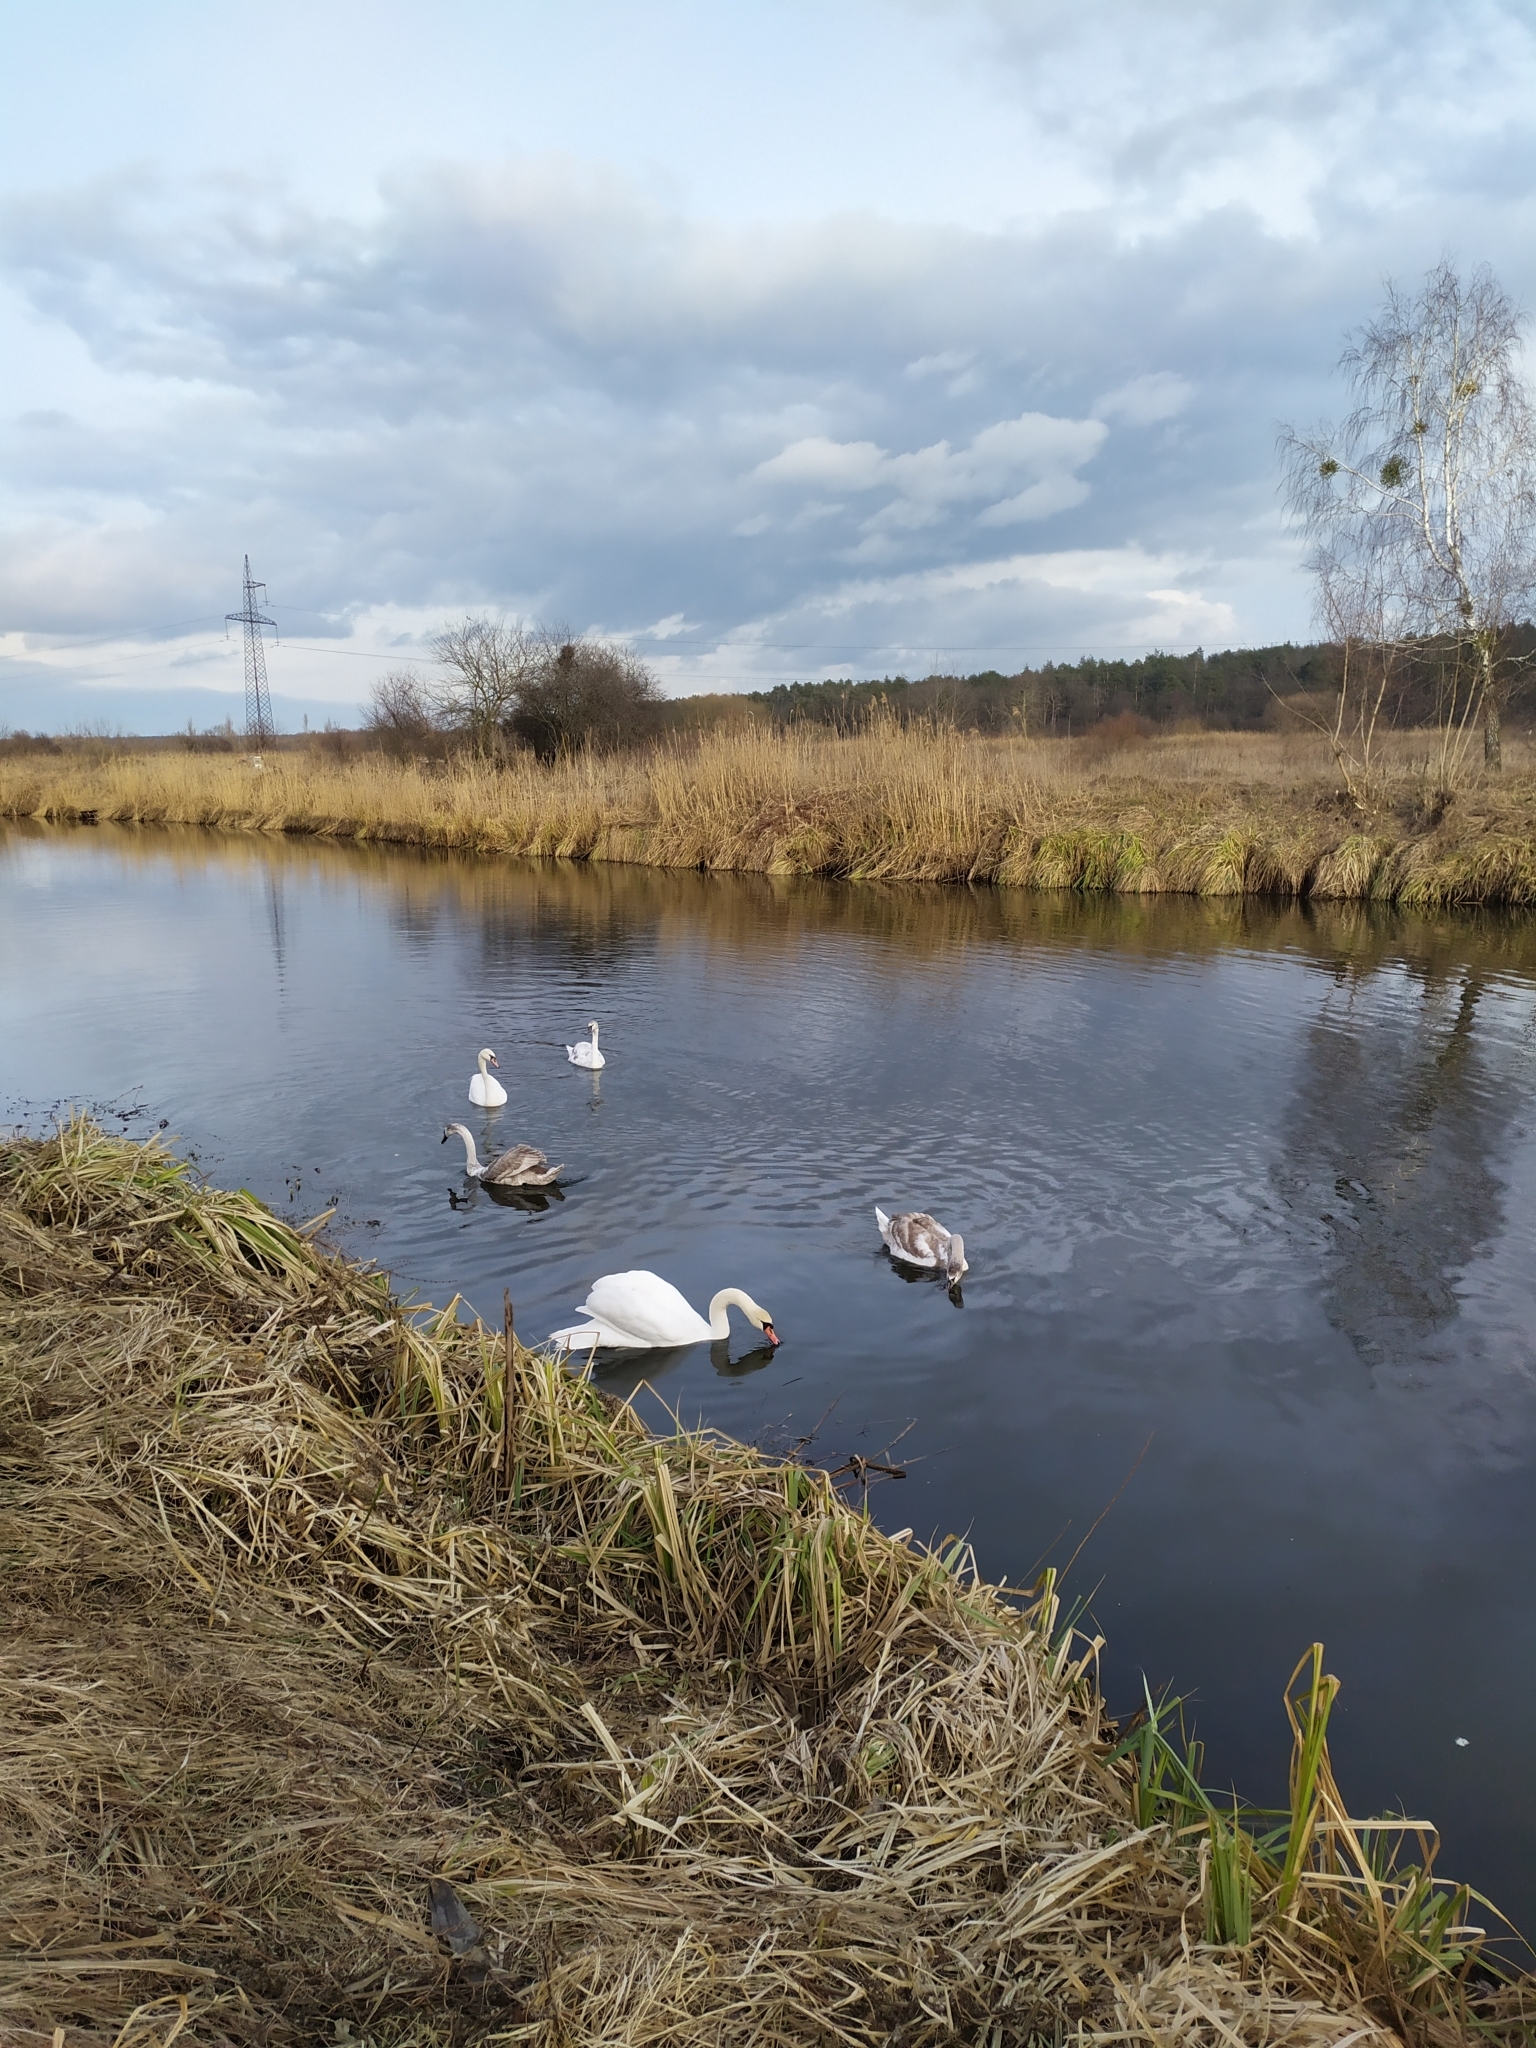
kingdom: Animalia
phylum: Chordata
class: Aves
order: Anseriformes
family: Anatidae
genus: Cygnus
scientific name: Cygnus olor
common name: Mute swan
